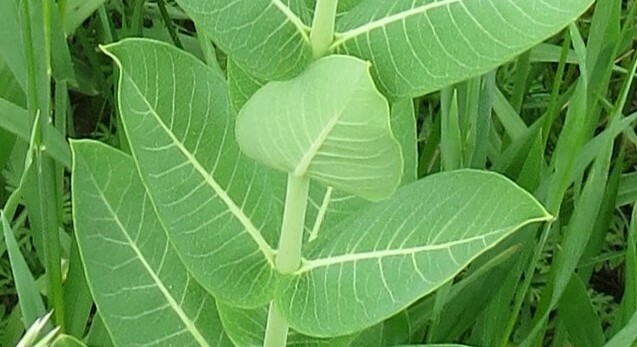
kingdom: Plantae
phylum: Tracheophyta
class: Magnoliopsida
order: Gentianales
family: Apocynaceae
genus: Apocynum
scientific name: Apocynum cannabinum
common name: Hemp dogbane
